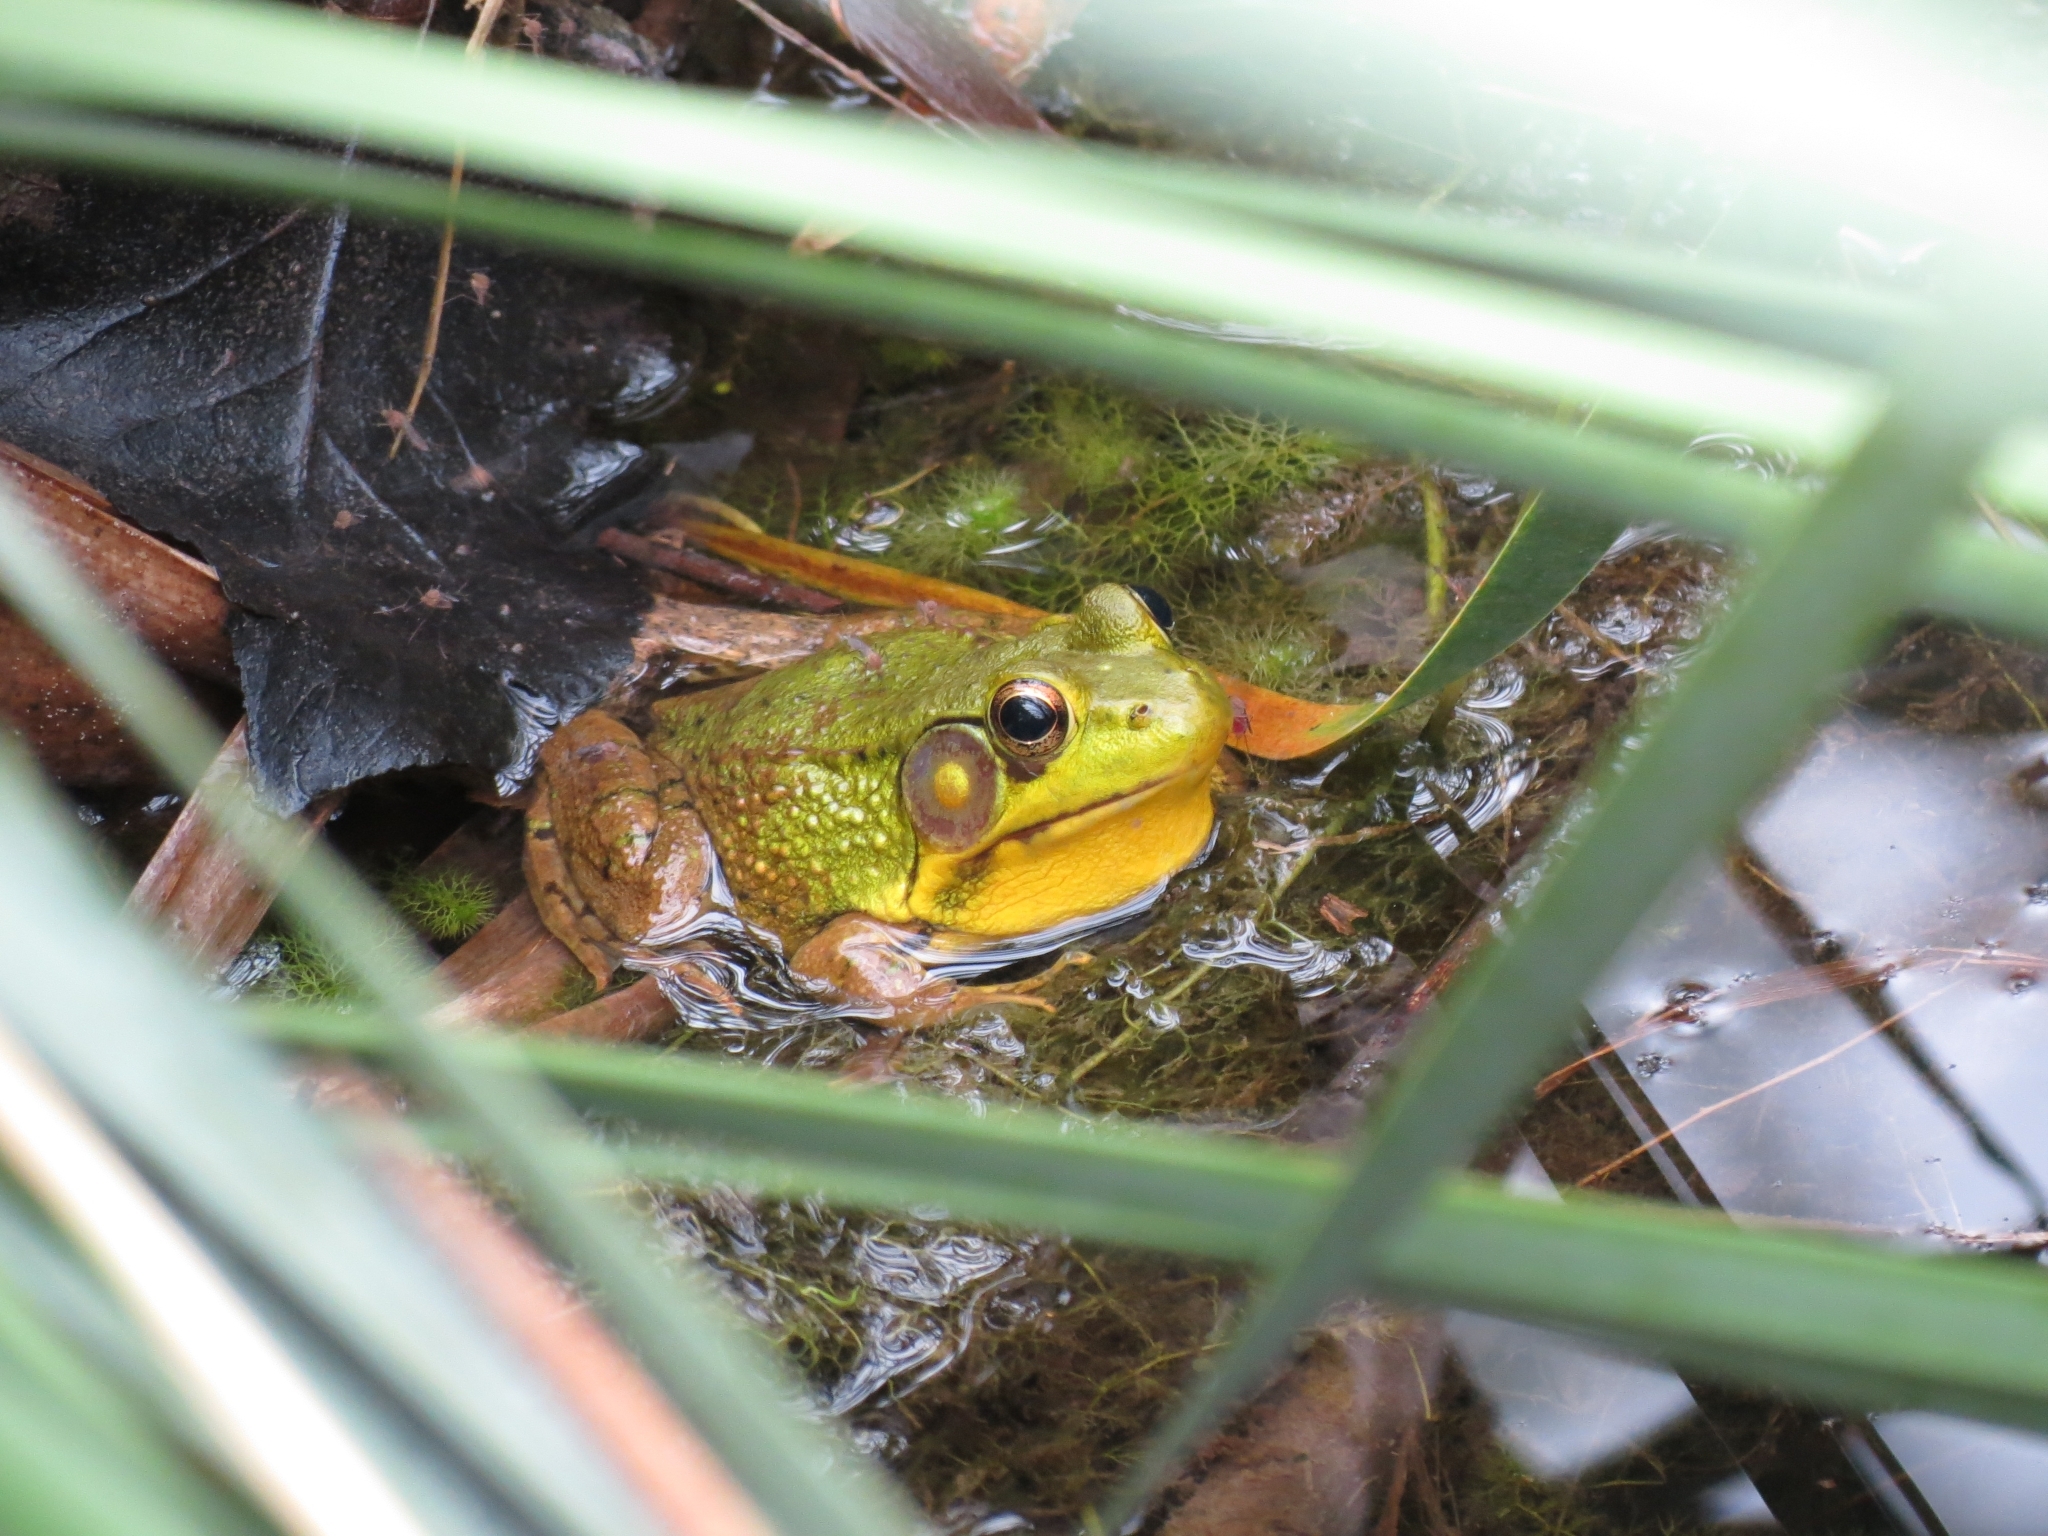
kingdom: Animalia
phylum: Chordata
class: Amphibia
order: Anura
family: Ranidae
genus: Lithobates
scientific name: Lithobates clamitans
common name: Green frog
